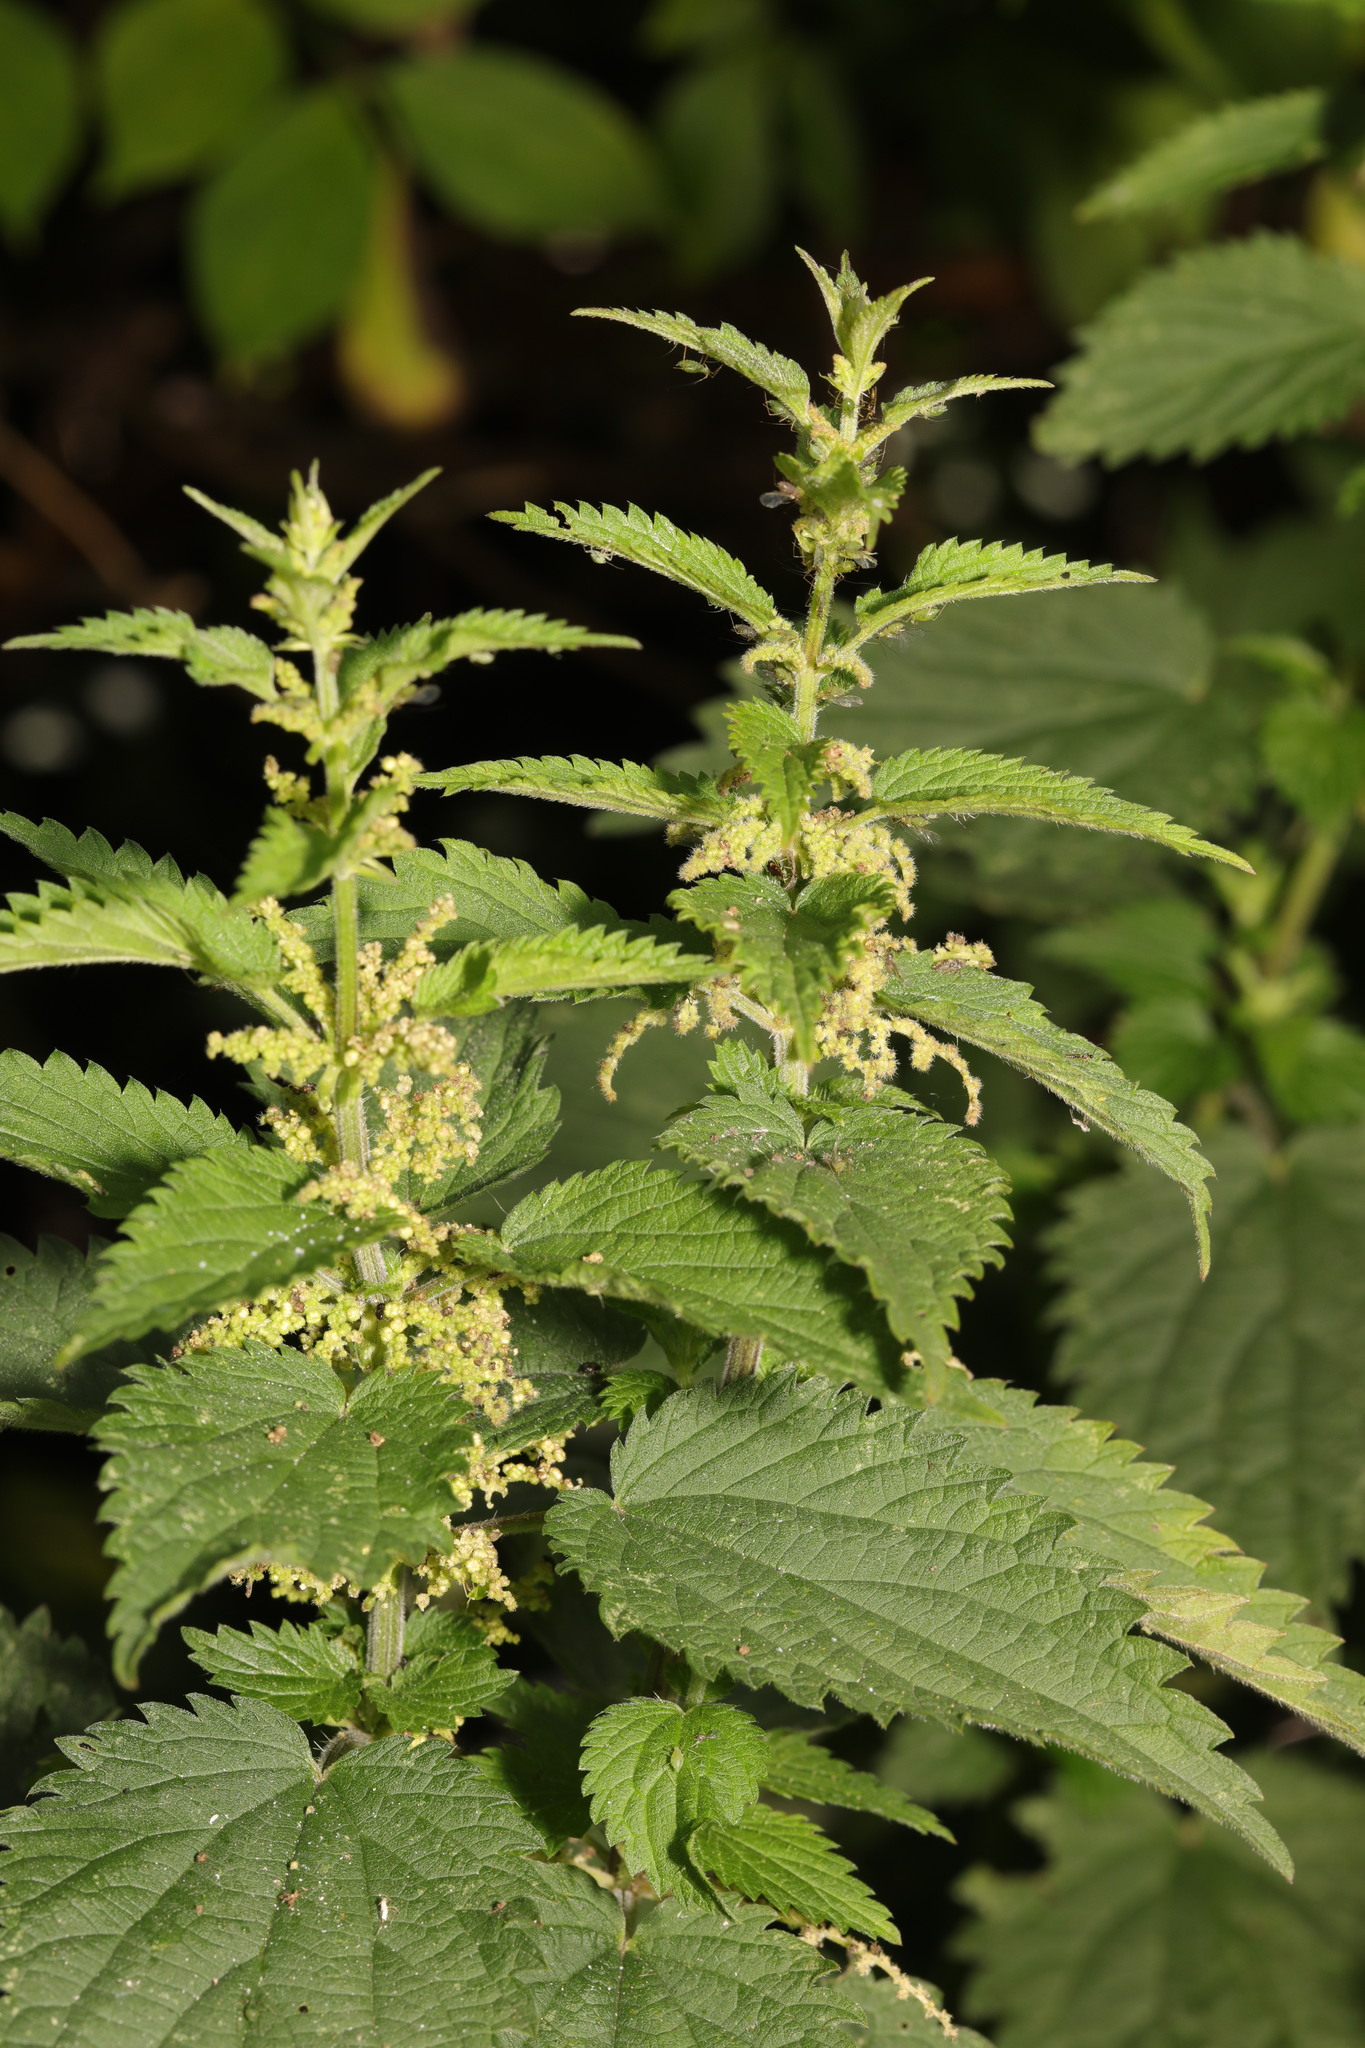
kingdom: Plantae
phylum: Tracheophyta
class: Magnoliopsida
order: Rosales
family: Urticaceae
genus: Urtica
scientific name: Urtica dioica
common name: Common nettle
